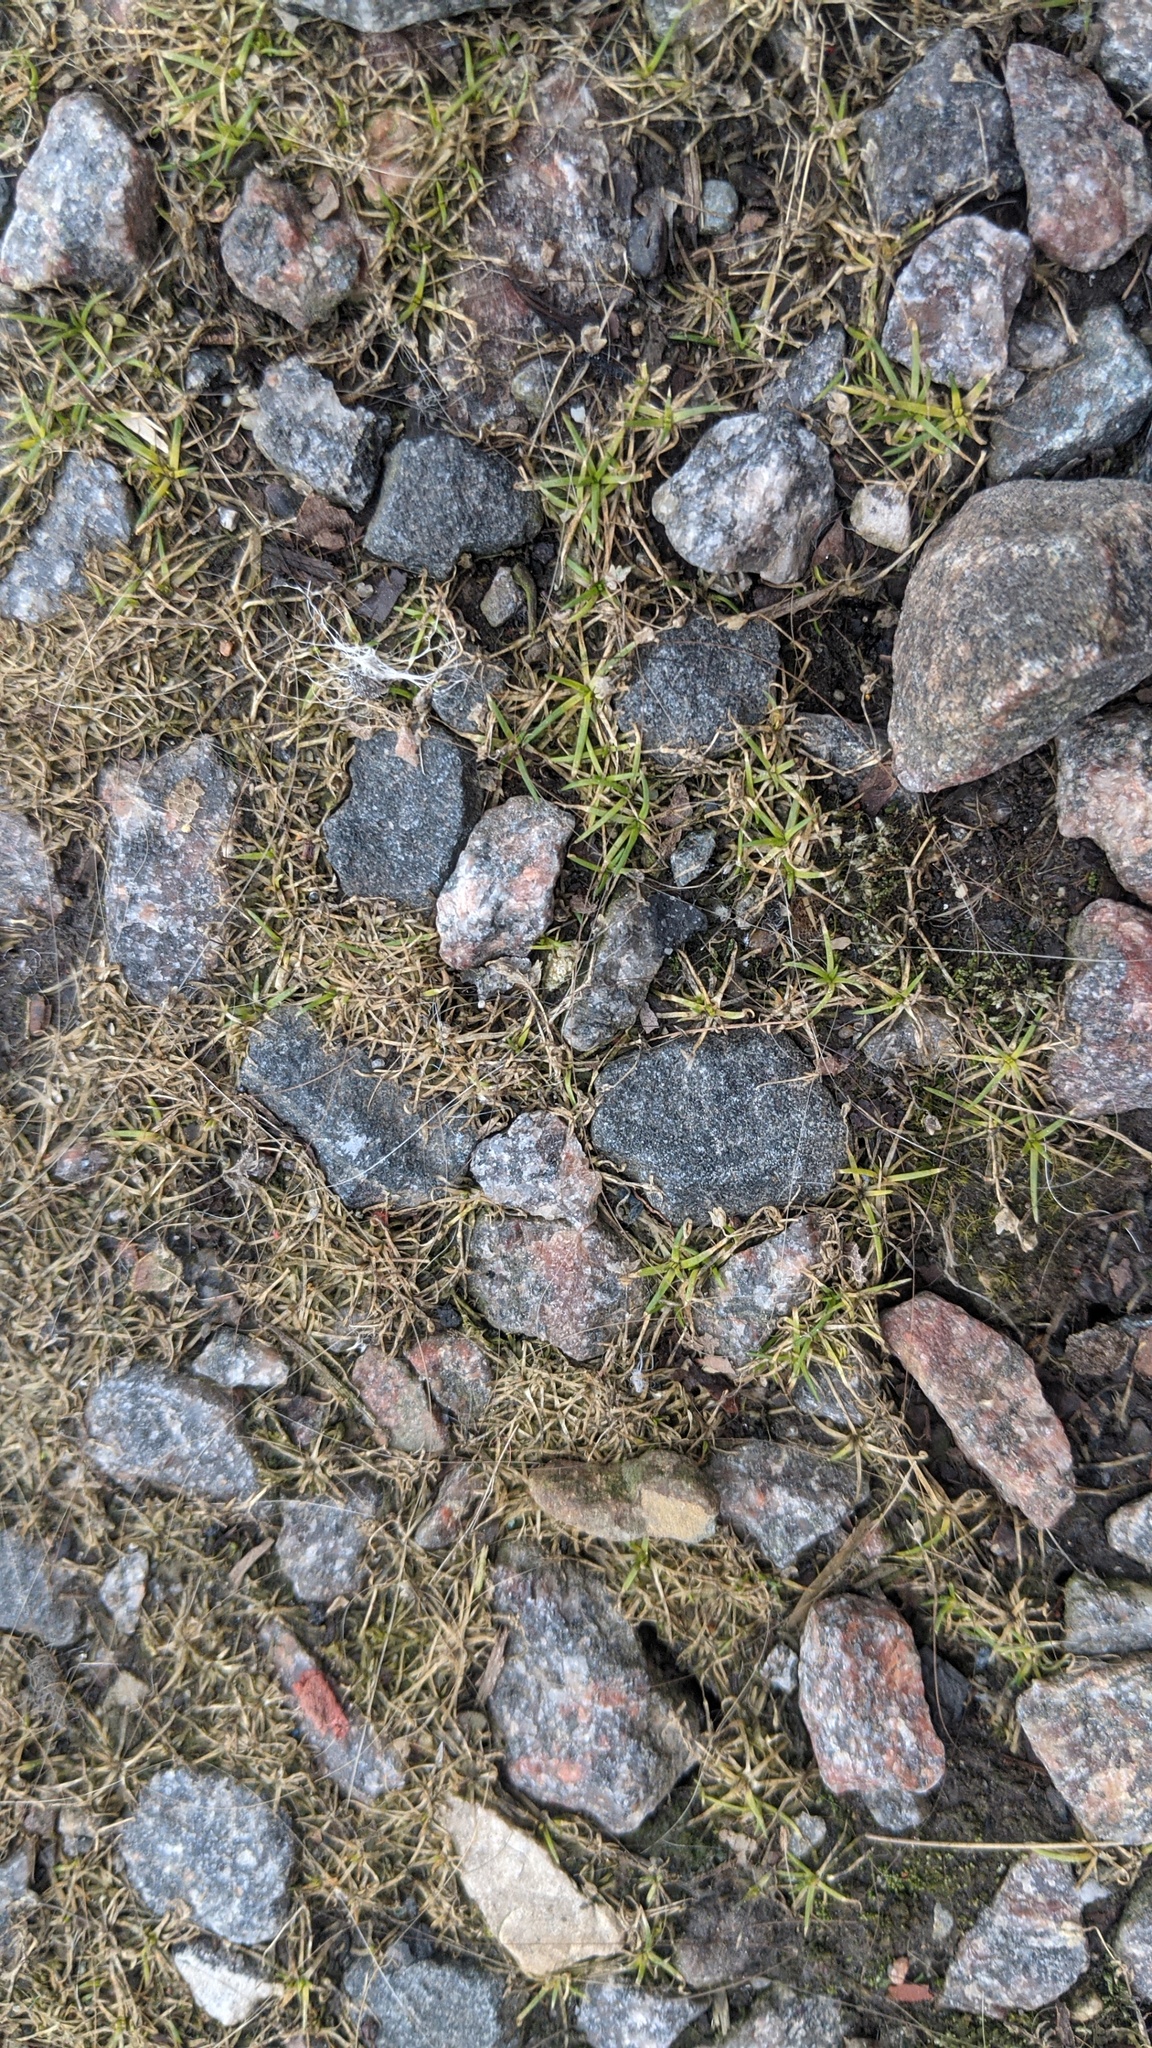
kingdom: Plantae
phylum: Tracheophyta
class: Magnoliopsida
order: Caryophyllales
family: Caryophyllaceae
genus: Sagina
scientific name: Sagina procumbens
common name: Procumbent pearlwort
